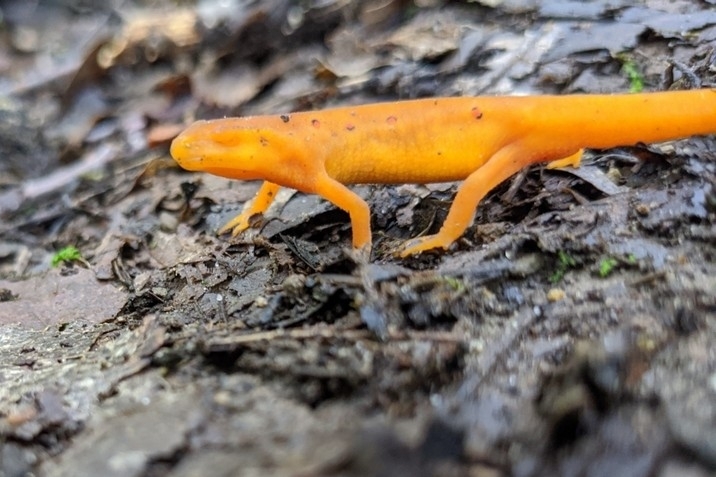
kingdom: Animalia
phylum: Chordata
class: Amphibia
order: Caudata
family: Salamandridae
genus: Notophthalmus
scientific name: Notophthalmus viridescens
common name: Eastern newt
